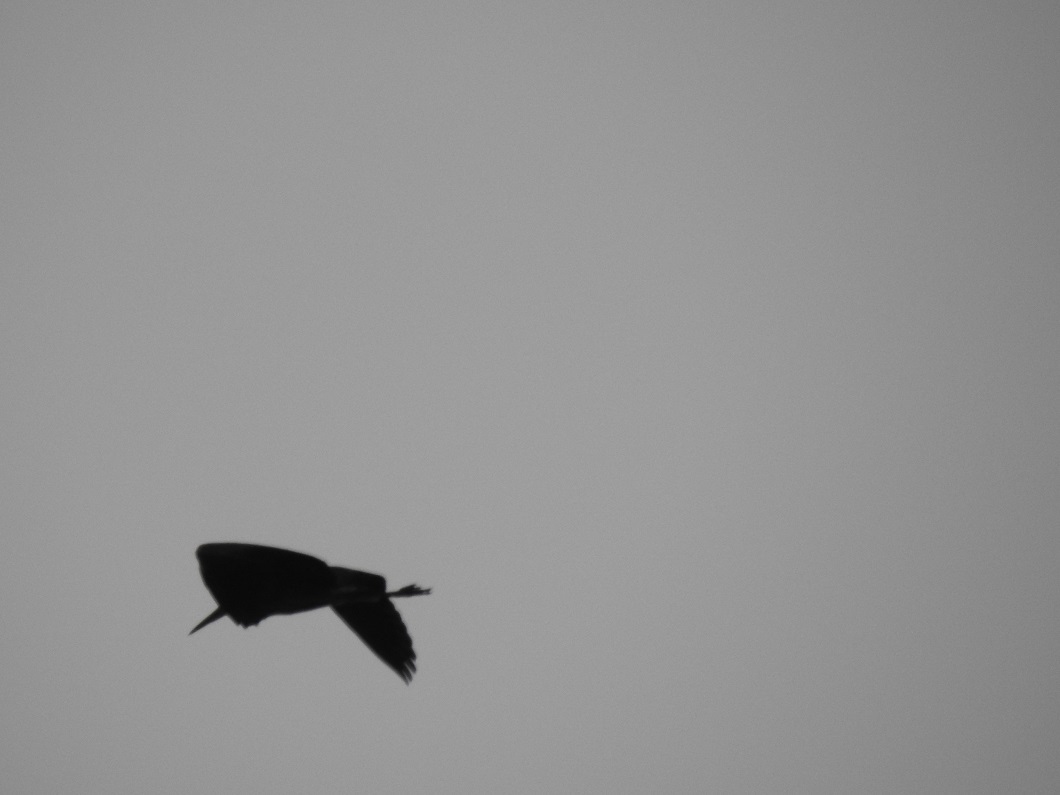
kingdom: Animalia
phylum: Chordata
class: Aves
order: Pelecaniformes
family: Ardeidae
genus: Ardea
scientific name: Ardea cinerea
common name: Grey heron
